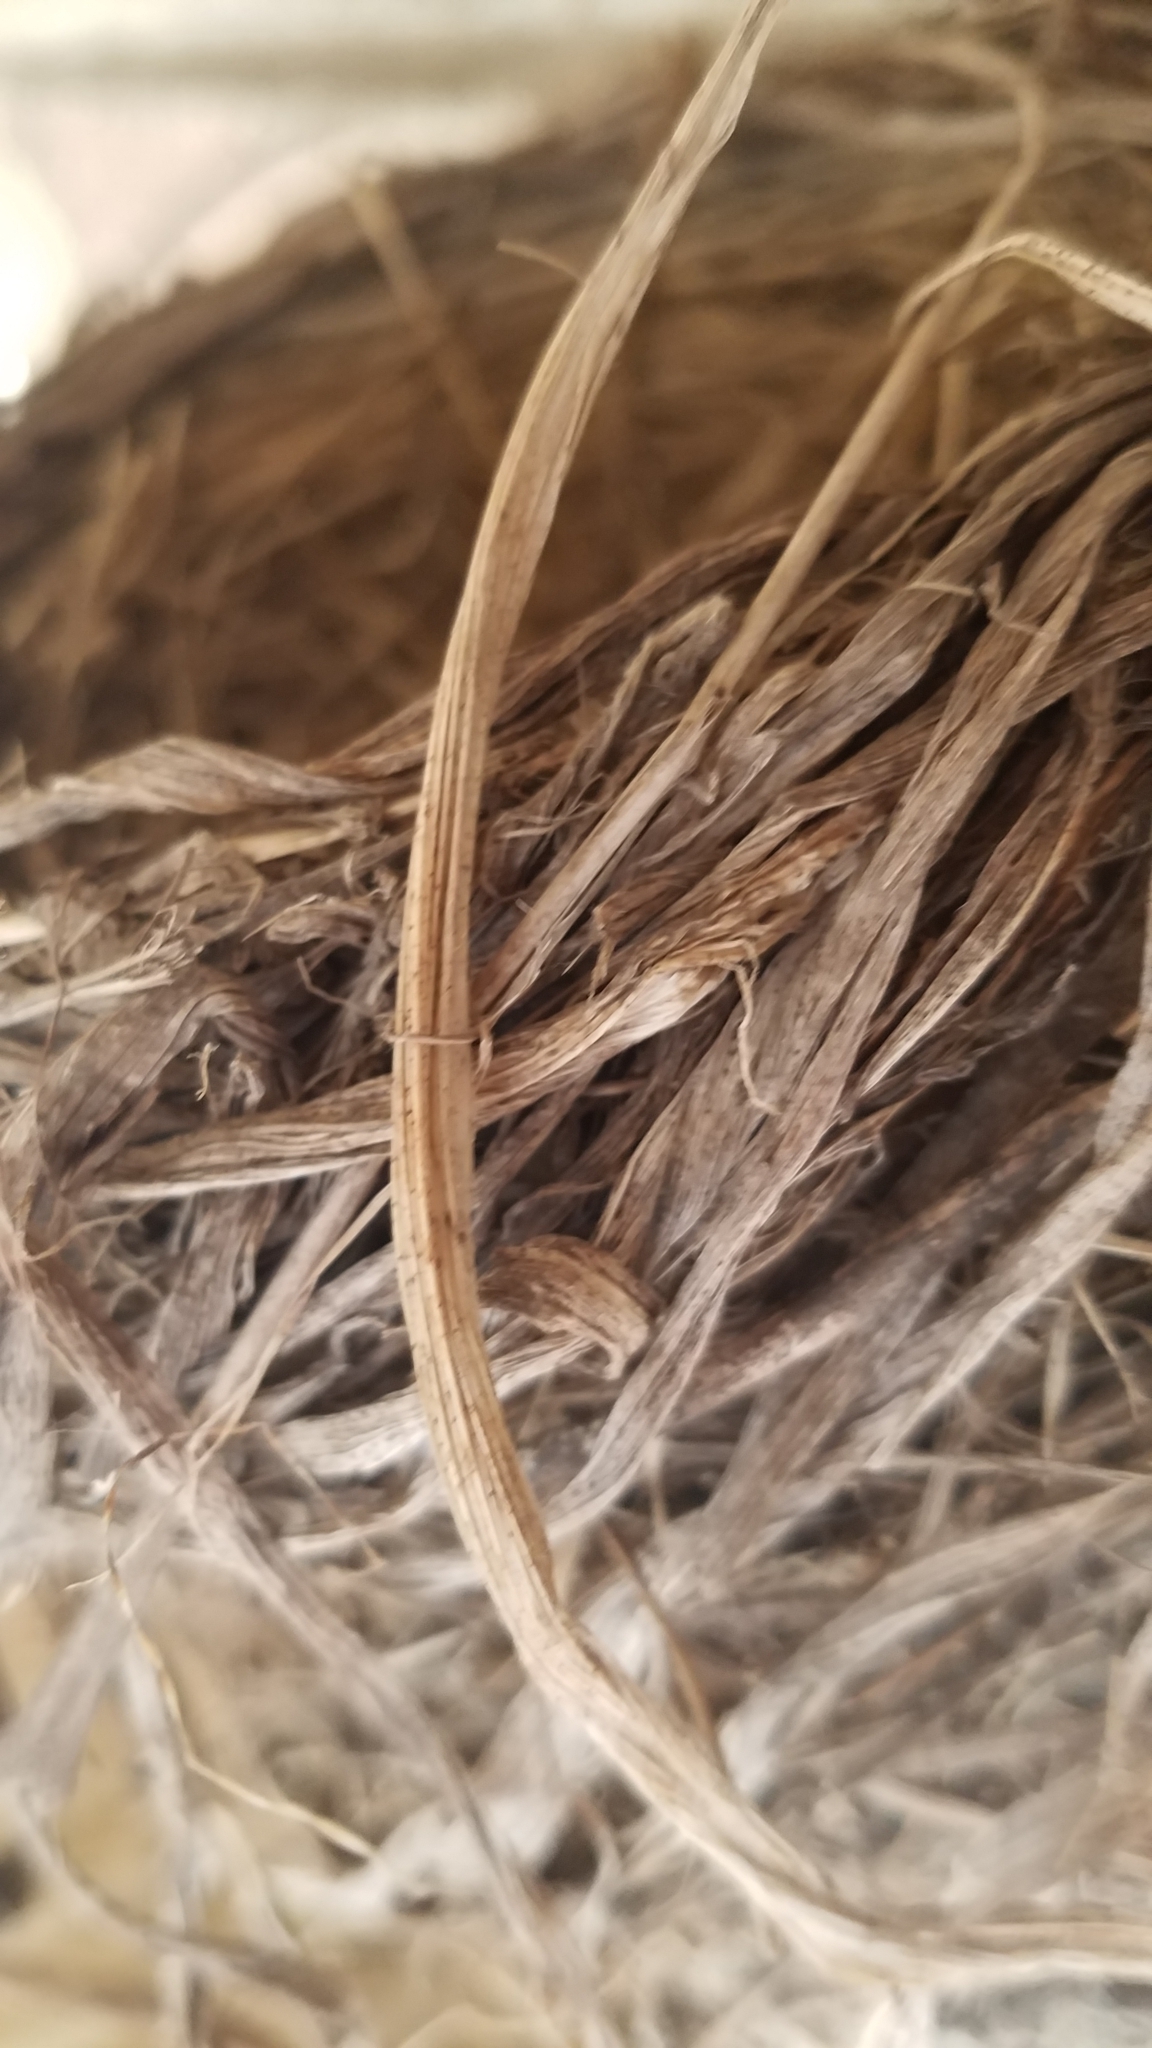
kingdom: Animalia
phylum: Chordata
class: Aves
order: Passeriformes
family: Turdidae
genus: Turdus
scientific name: Turdus migratorius
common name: American robin
